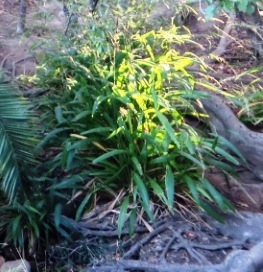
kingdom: Plantae
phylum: Tracheophyta
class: Liliopsida
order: Poales
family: Poaceae
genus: Setaria
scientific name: Setaria megaphylla
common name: Bigleaf bristlegrass
